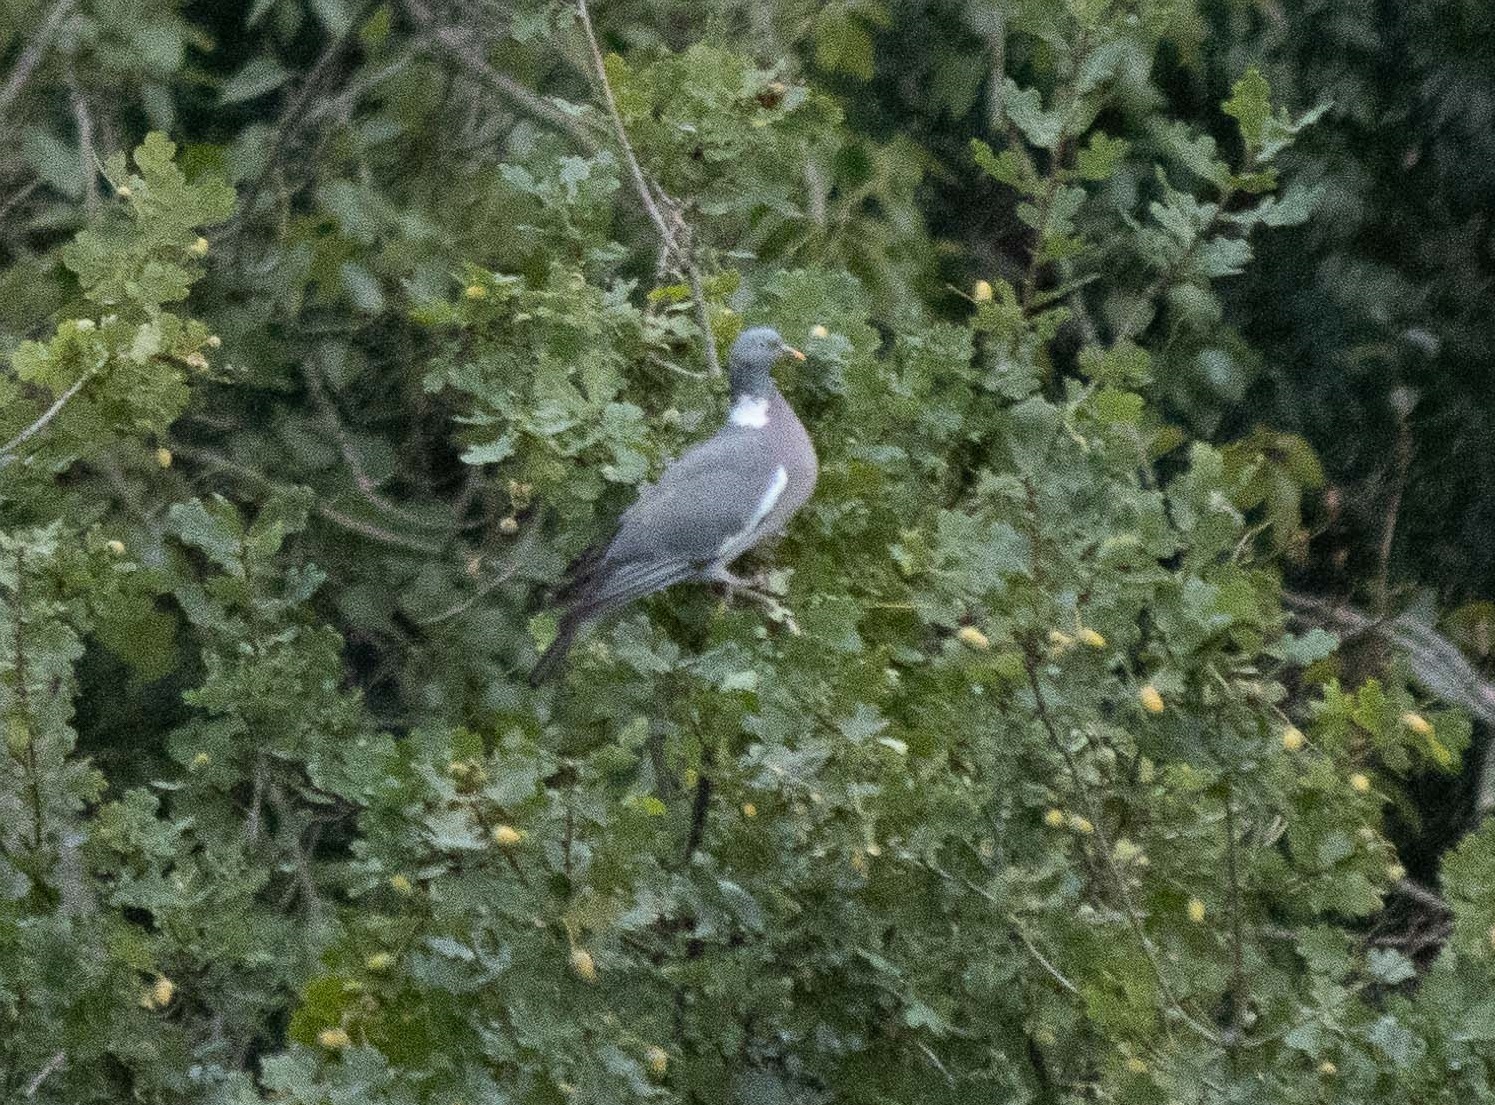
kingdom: Animalia
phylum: Chordata
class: Aves
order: Columbiformes
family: Columbidae
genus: Columba
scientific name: Columba palumbus
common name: Common wood pigeon
